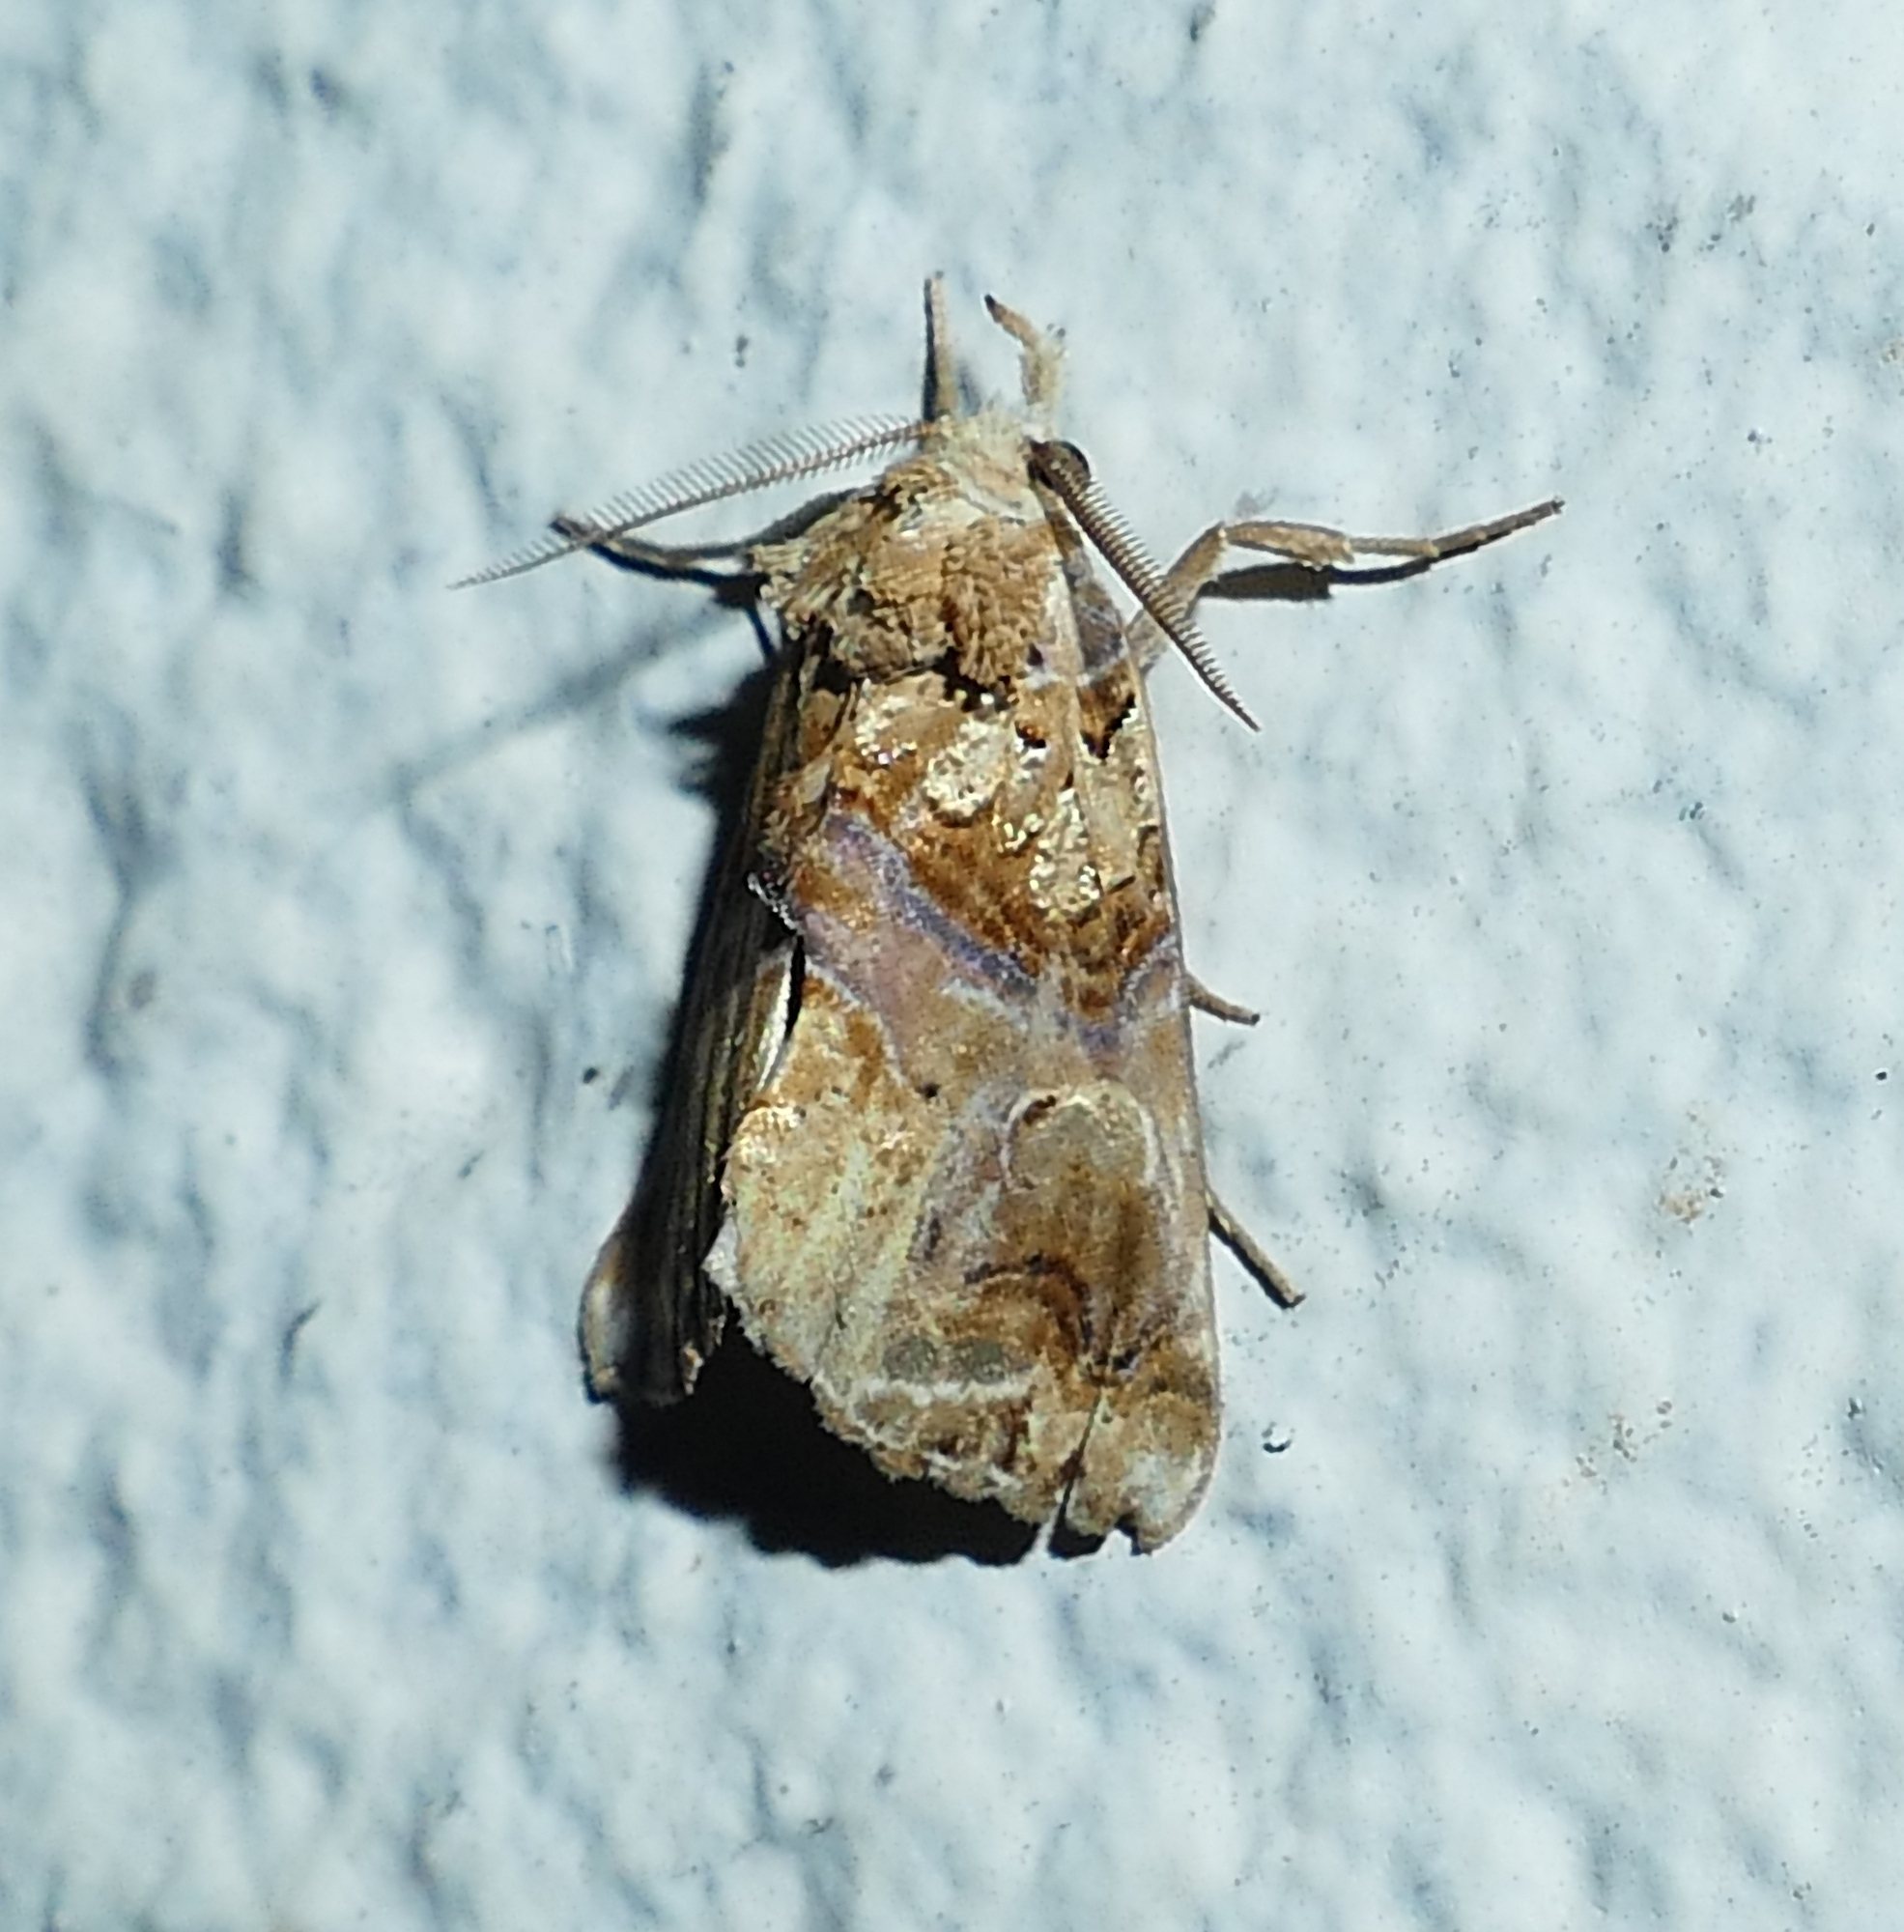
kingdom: Animalia
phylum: Arthropoda
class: Insecta
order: Lepidoptera
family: Erebidae
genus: Plusiodonta
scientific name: Plusiodonta compressipalpis
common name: Moonseed moth
